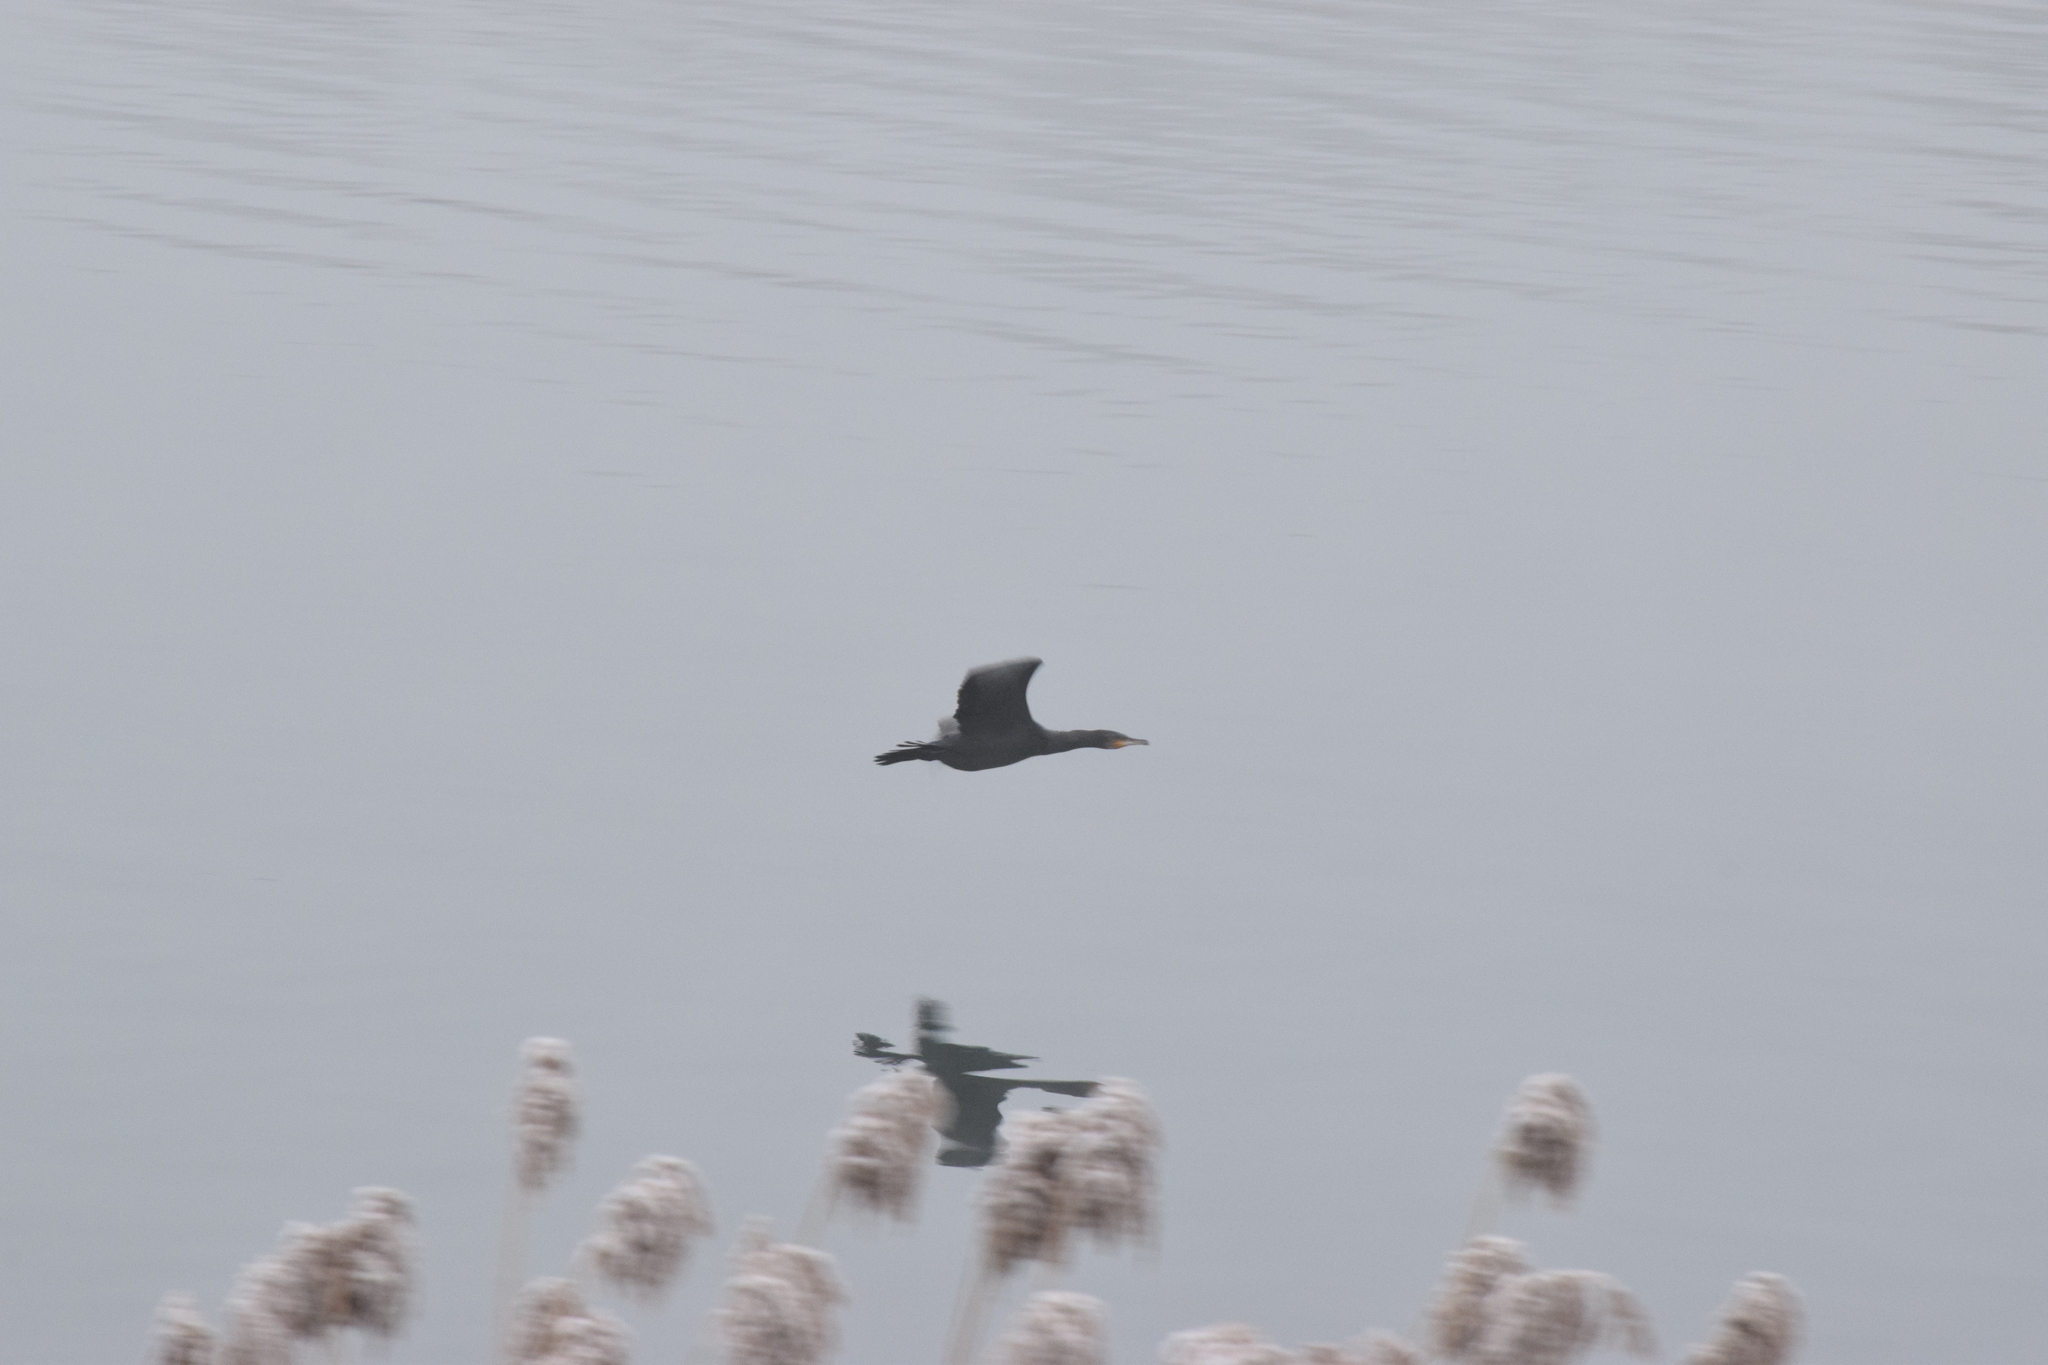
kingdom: Animalia
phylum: Chordata
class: Aves
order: Suliformes
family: Phalacrocoracidae
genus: Phalacrocorax
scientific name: Phalacrocorax carbo
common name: Great cormorant
